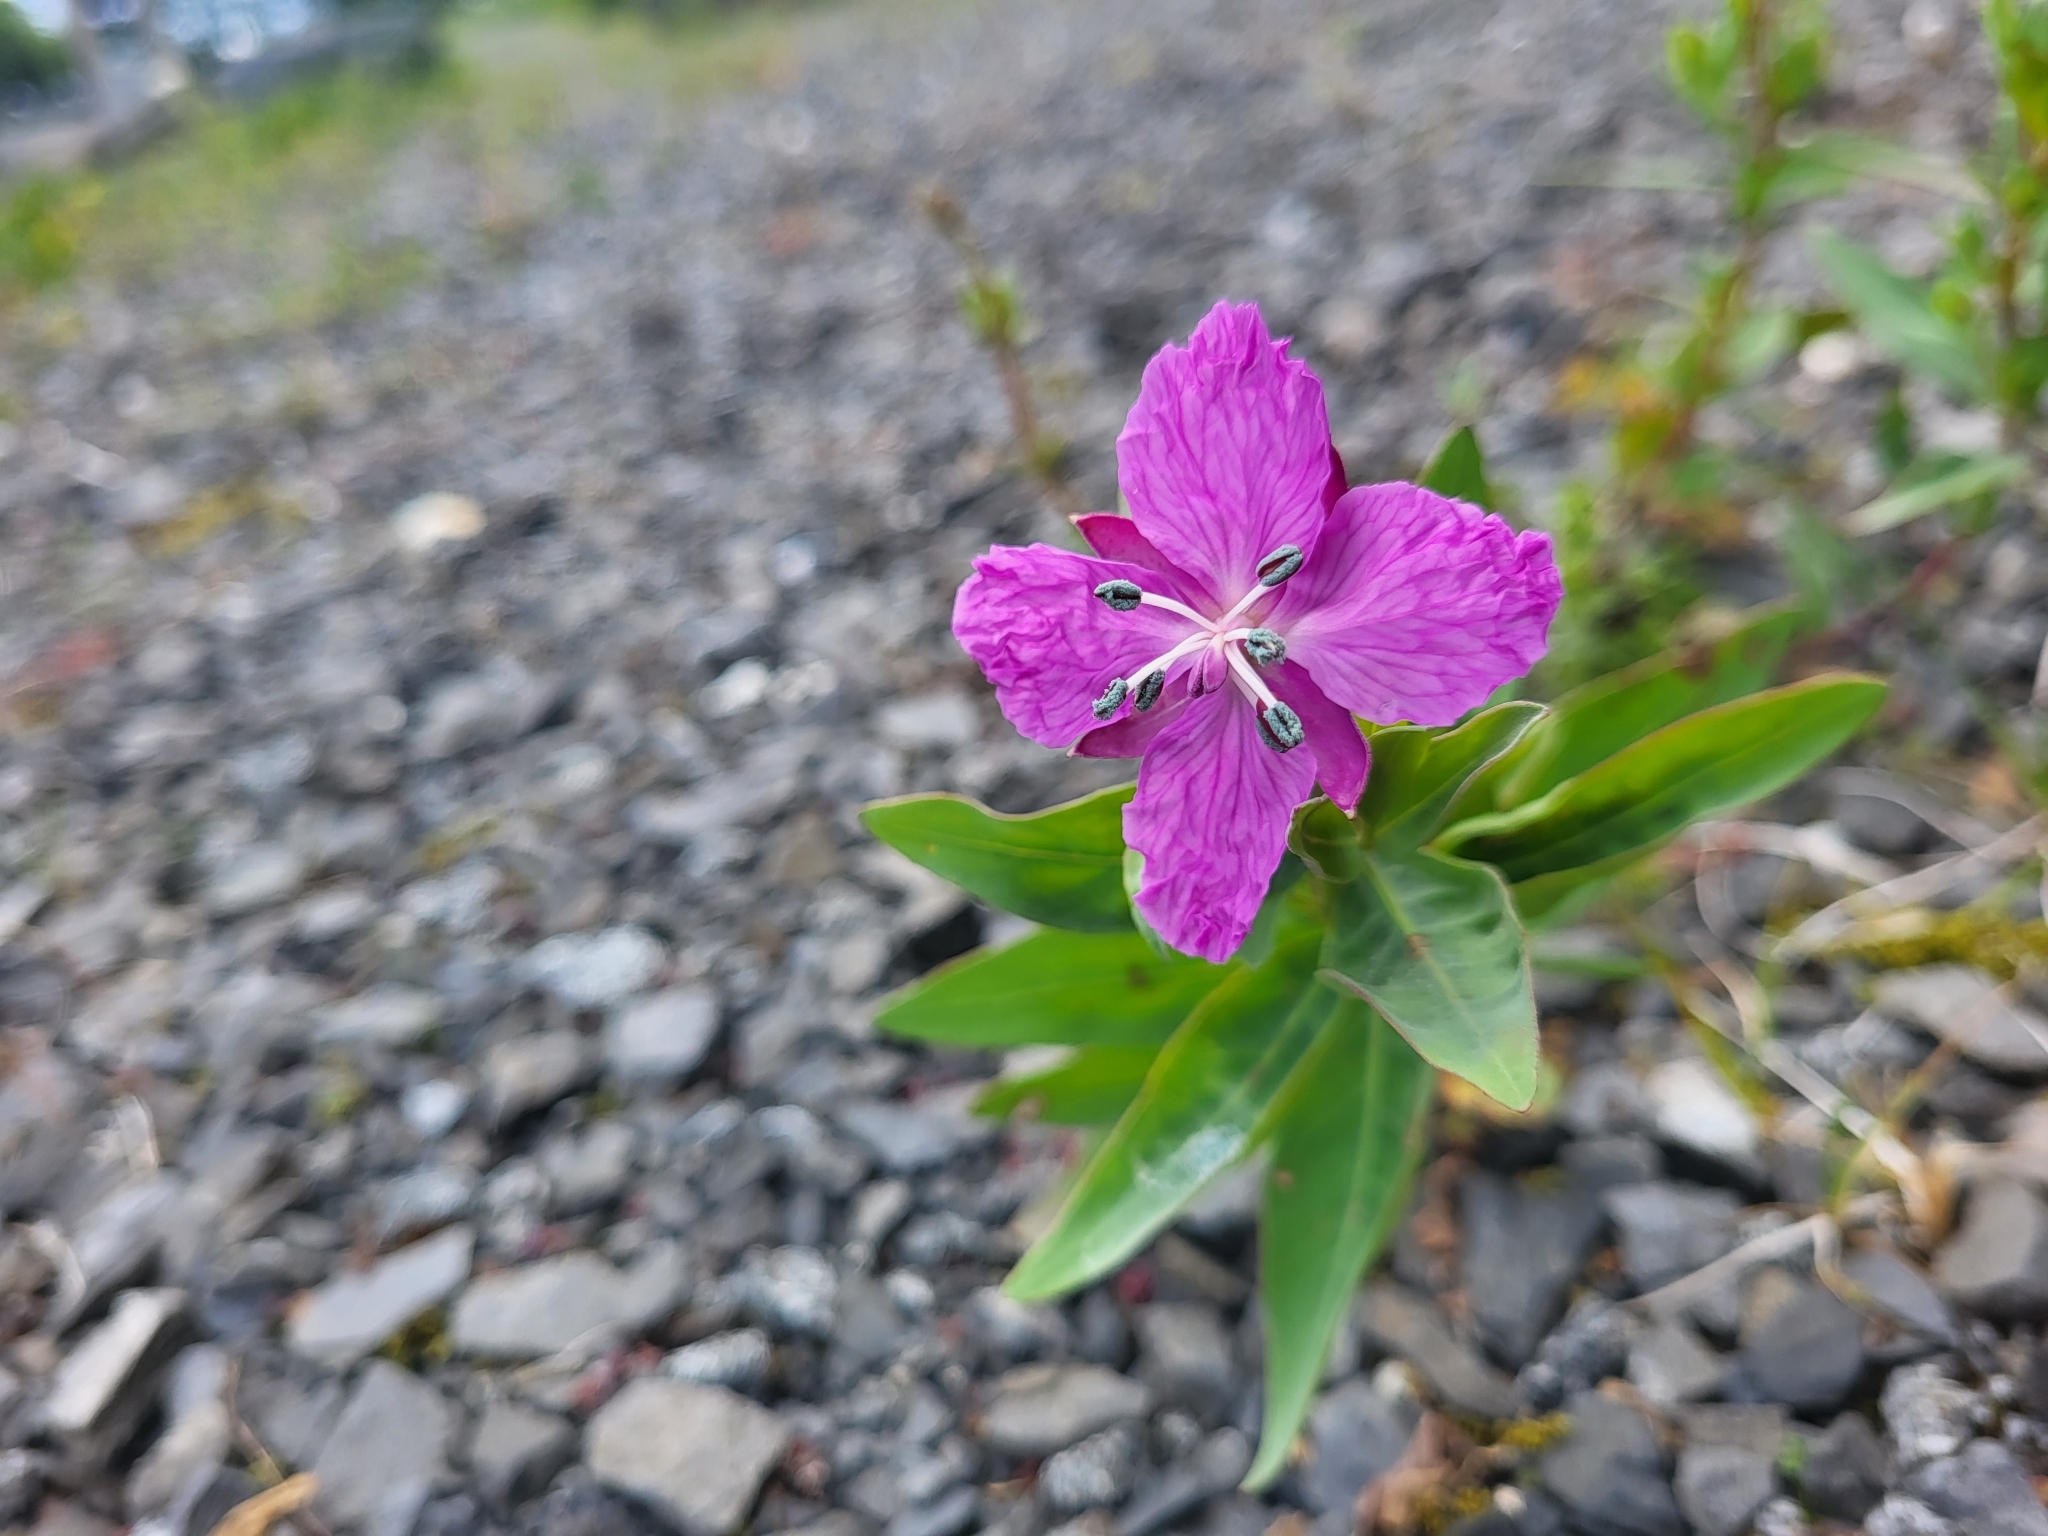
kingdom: Plantae
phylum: Tracheophyta
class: Magnoliopsida
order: Myrtales
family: Onagraceae
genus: Chamaenerion
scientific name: Chamaenerion latifolium
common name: Dwarf fireweed
